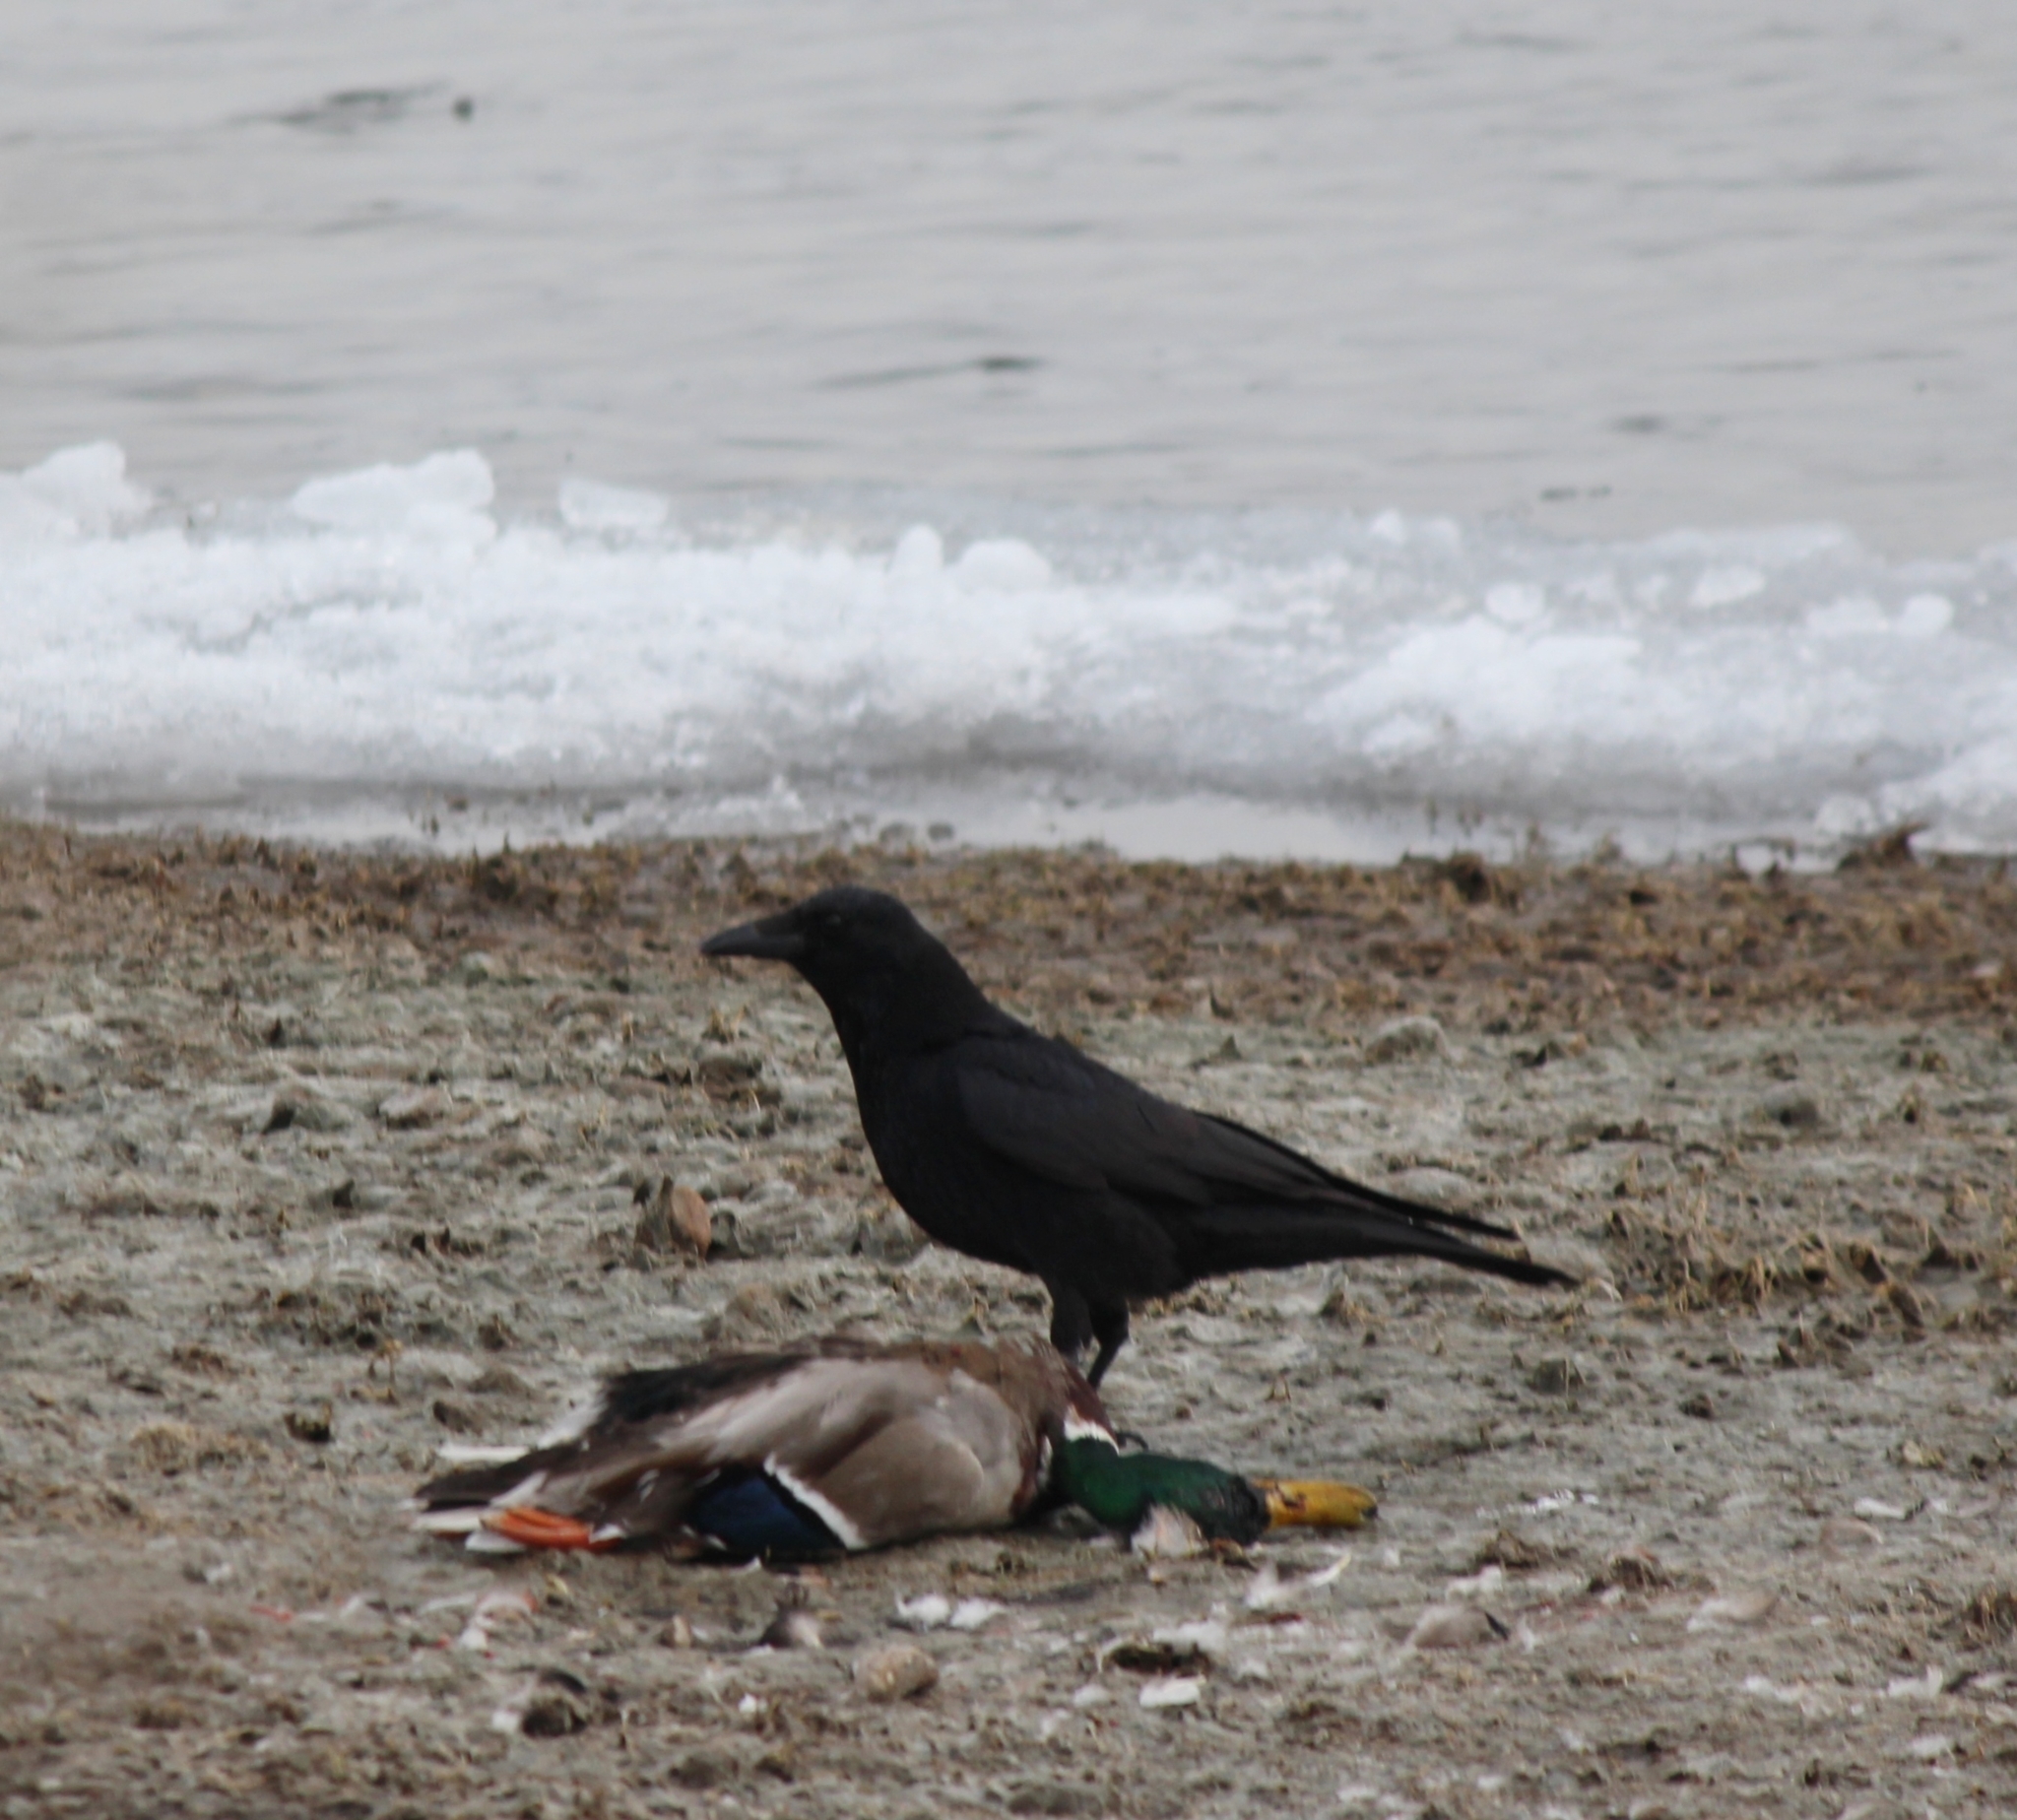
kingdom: Animalia
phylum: Chordata
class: Aves
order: Passeriformes
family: Corvidae
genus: Corvus
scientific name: Corvus corone
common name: Carrion crow
